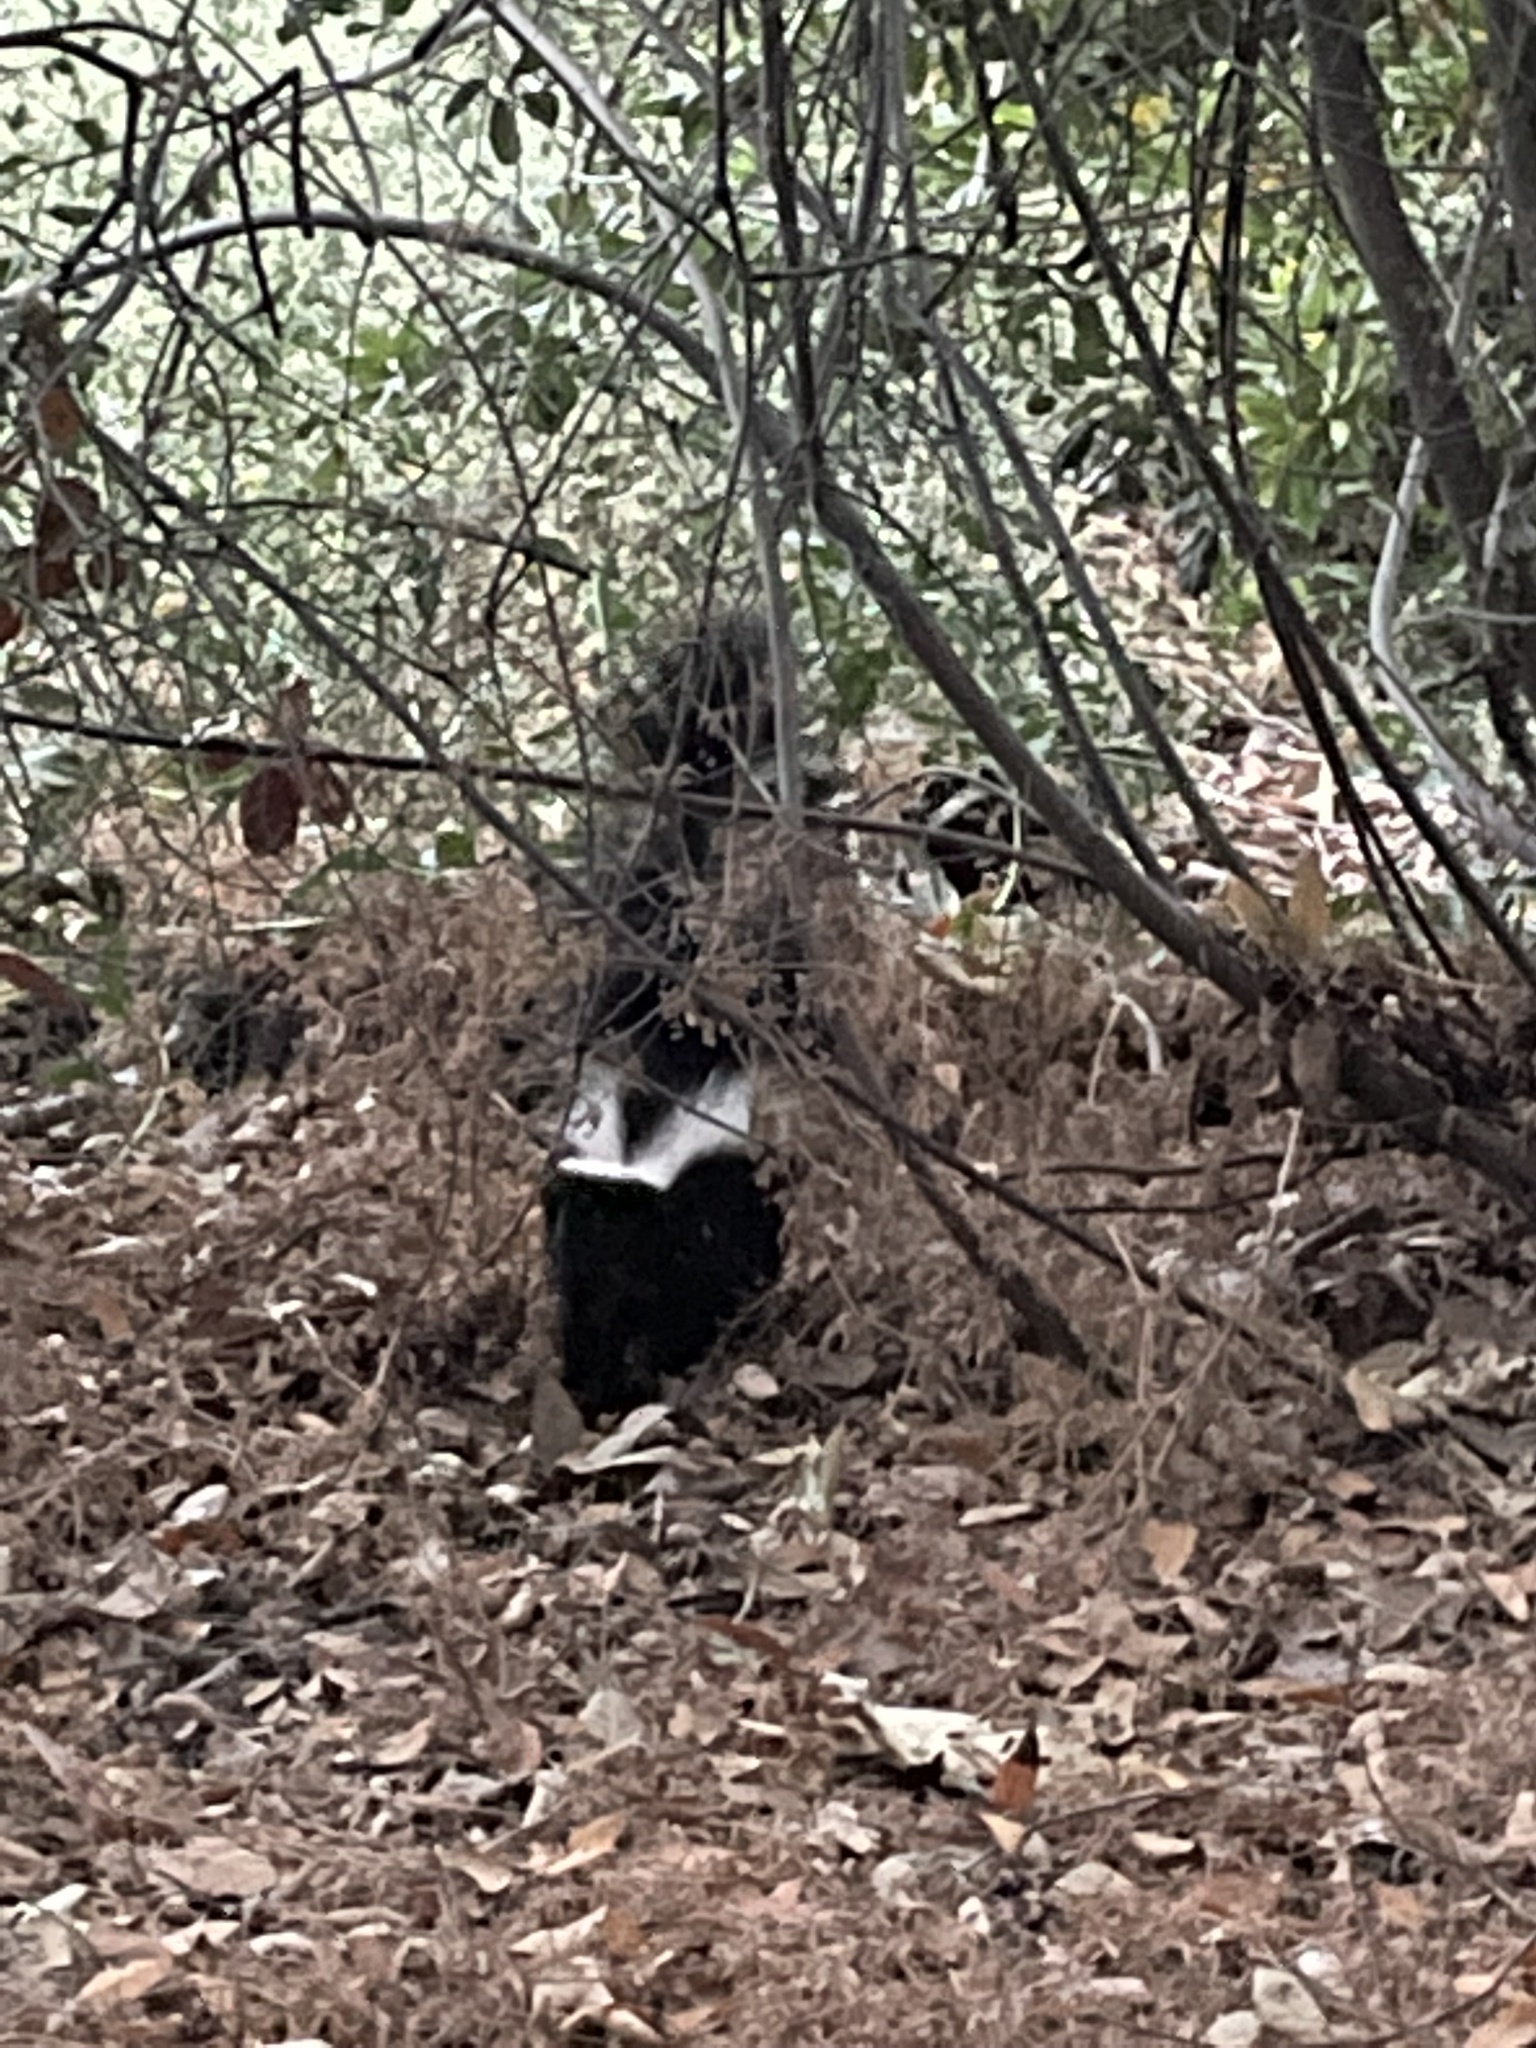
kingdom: Animalia
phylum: Chordata
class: Mammalia
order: Carnivora
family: Mephitidae
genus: Mephitis
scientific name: Mephitis mephitis
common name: Striped skunk
